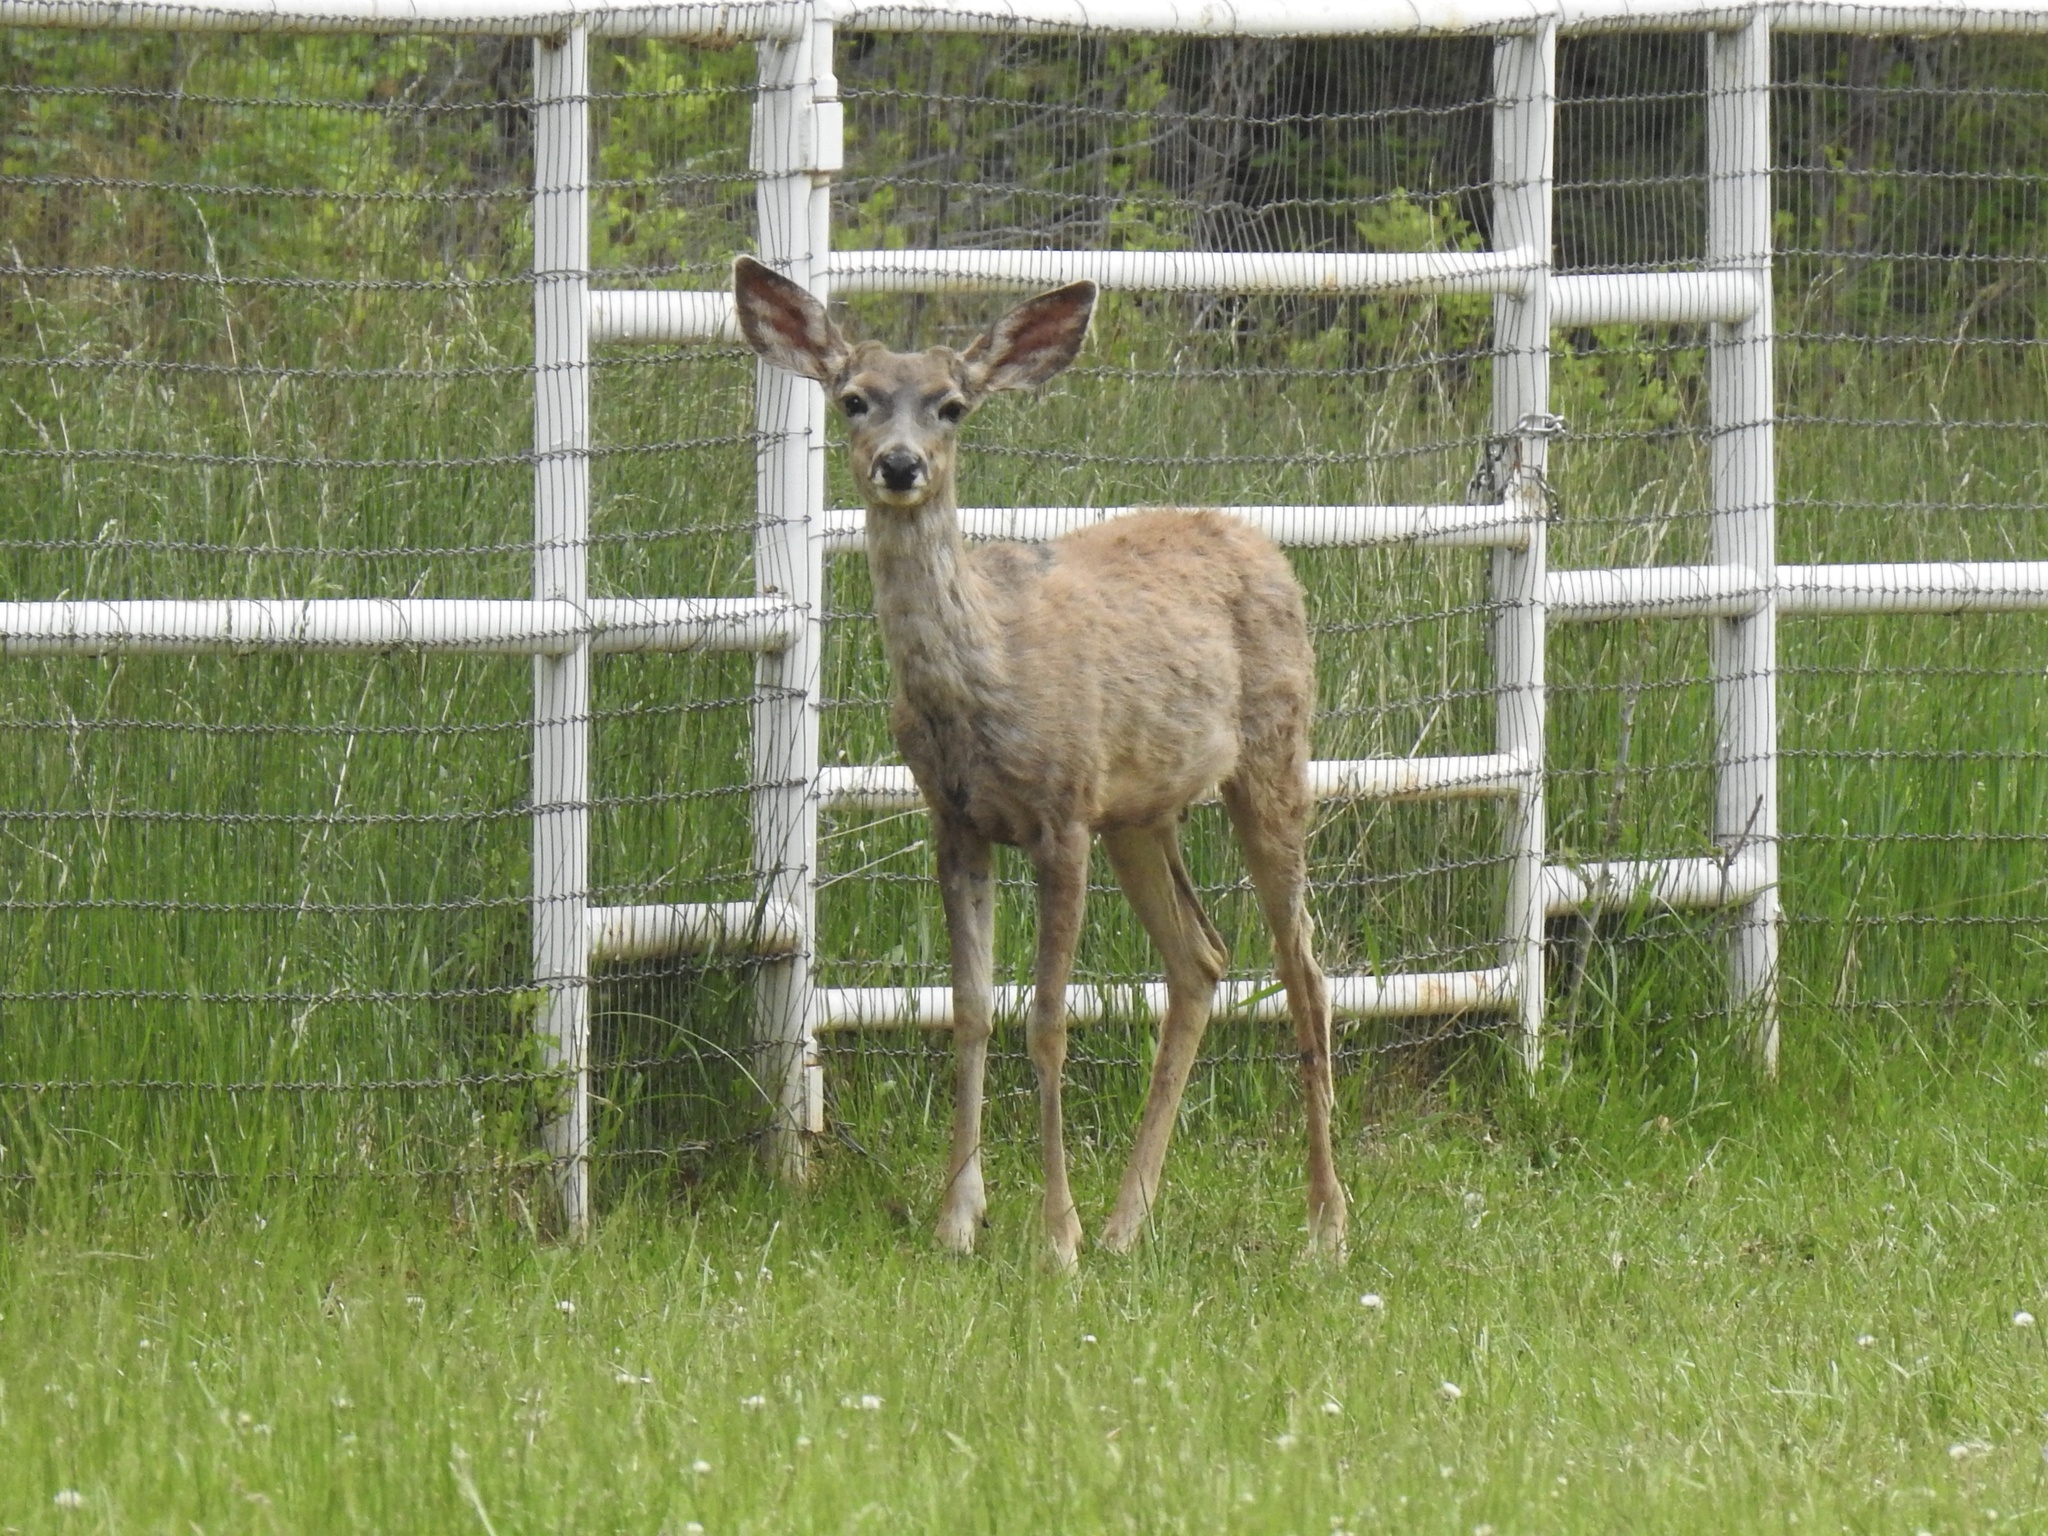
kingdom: Animalia
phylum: Chordata
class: Mammalia
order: Artiodactyla
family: Cervidae
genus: Odocoileus
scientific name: Odocoileus hemionus
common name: Mule deer
